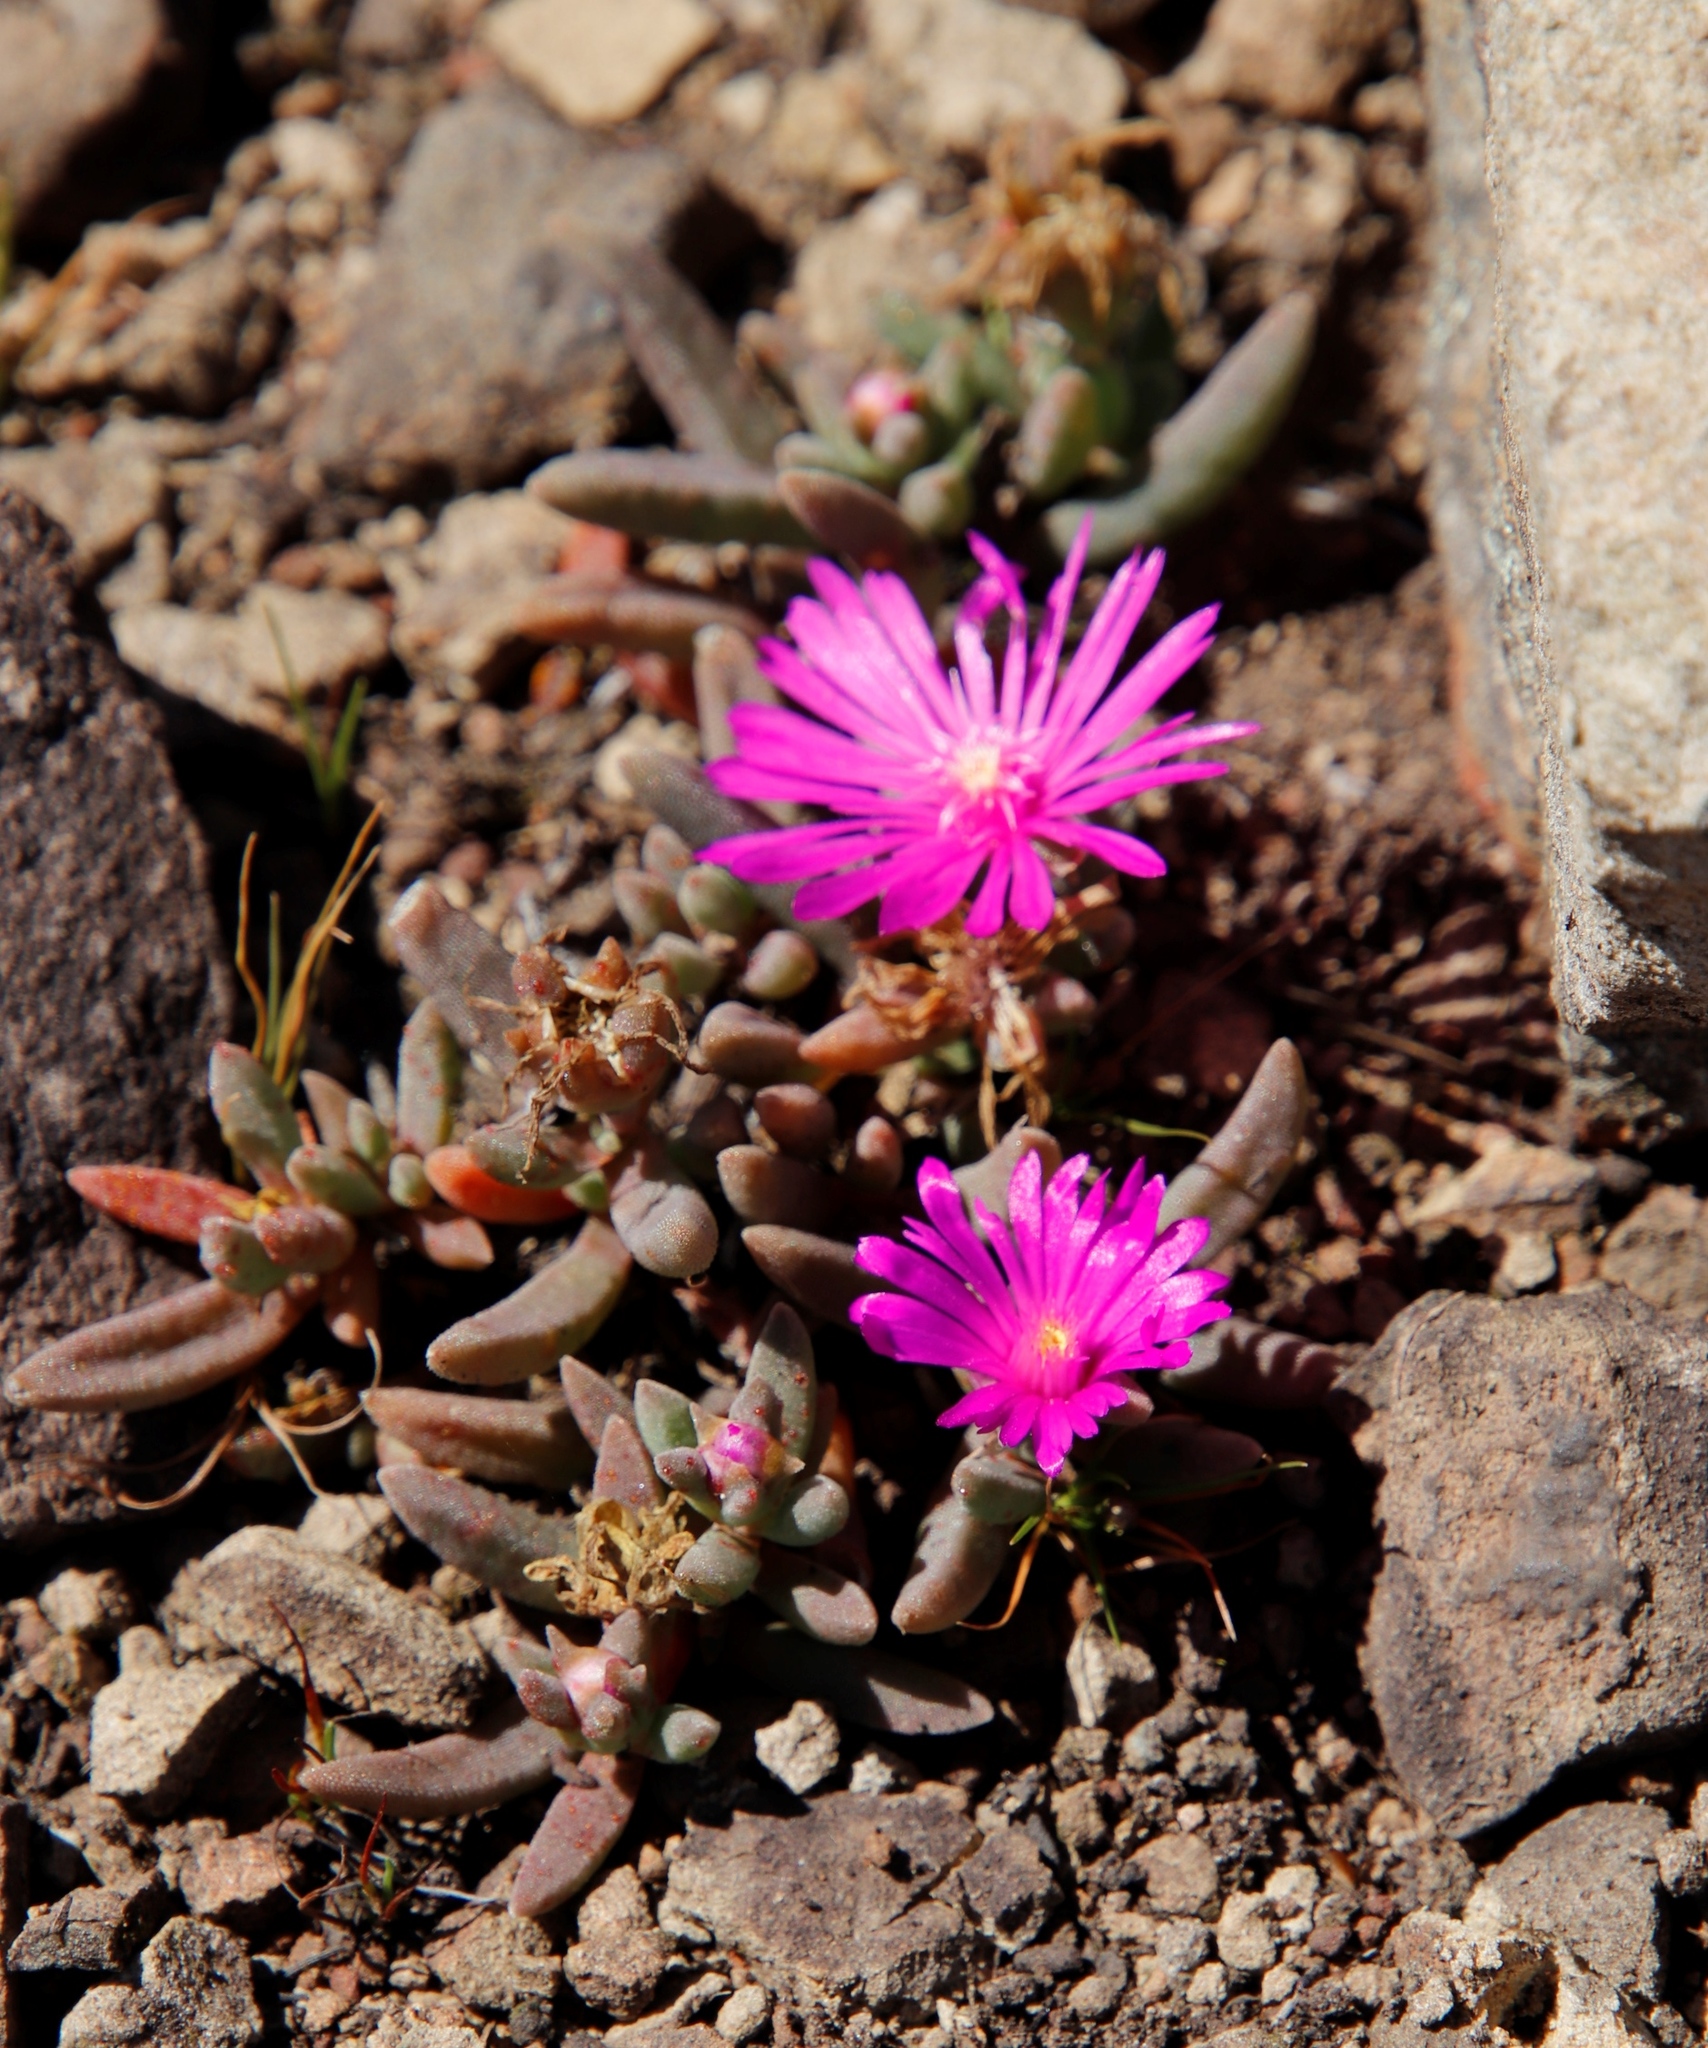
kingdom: Plantae
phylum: Tracheophyta
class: Magnoliopsida
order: Caryophyllales
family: Aizoaceae
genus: Delosperma
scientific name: Delosperma basuticum
